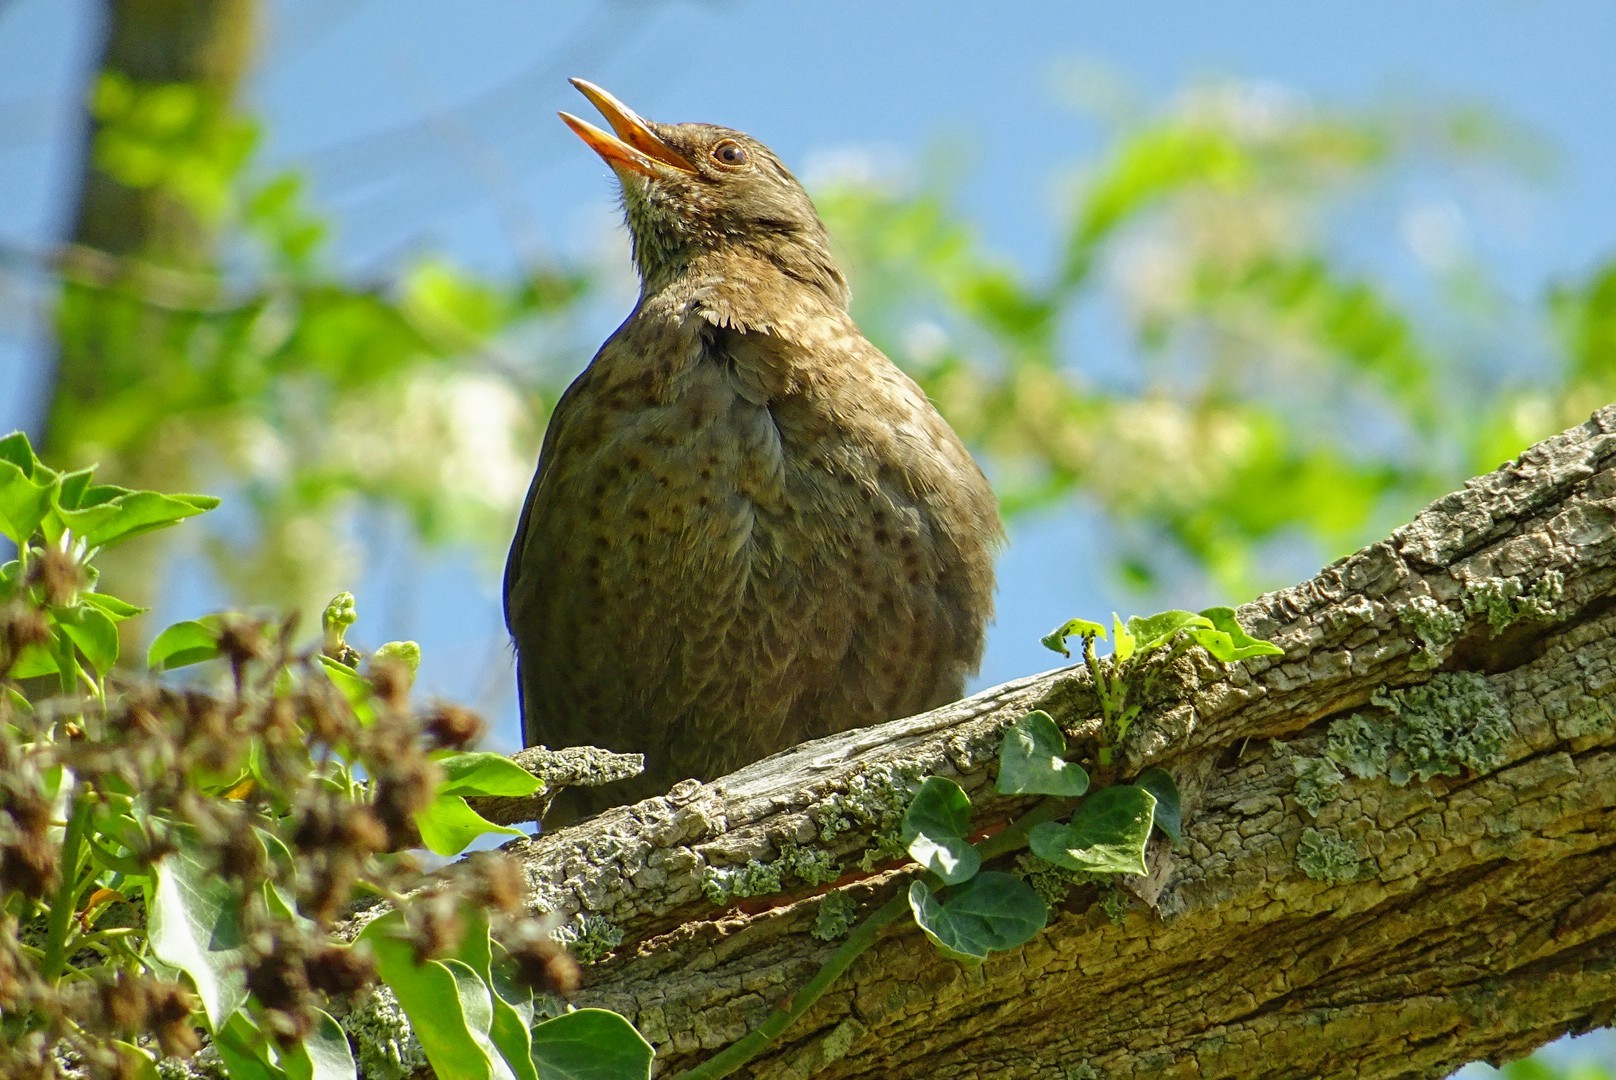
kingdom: Animalia
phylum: Chordata
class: Aves
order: Passeriformes
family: Turdidae
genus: Turdus
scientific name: Turdus merula
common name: Common blackbird
